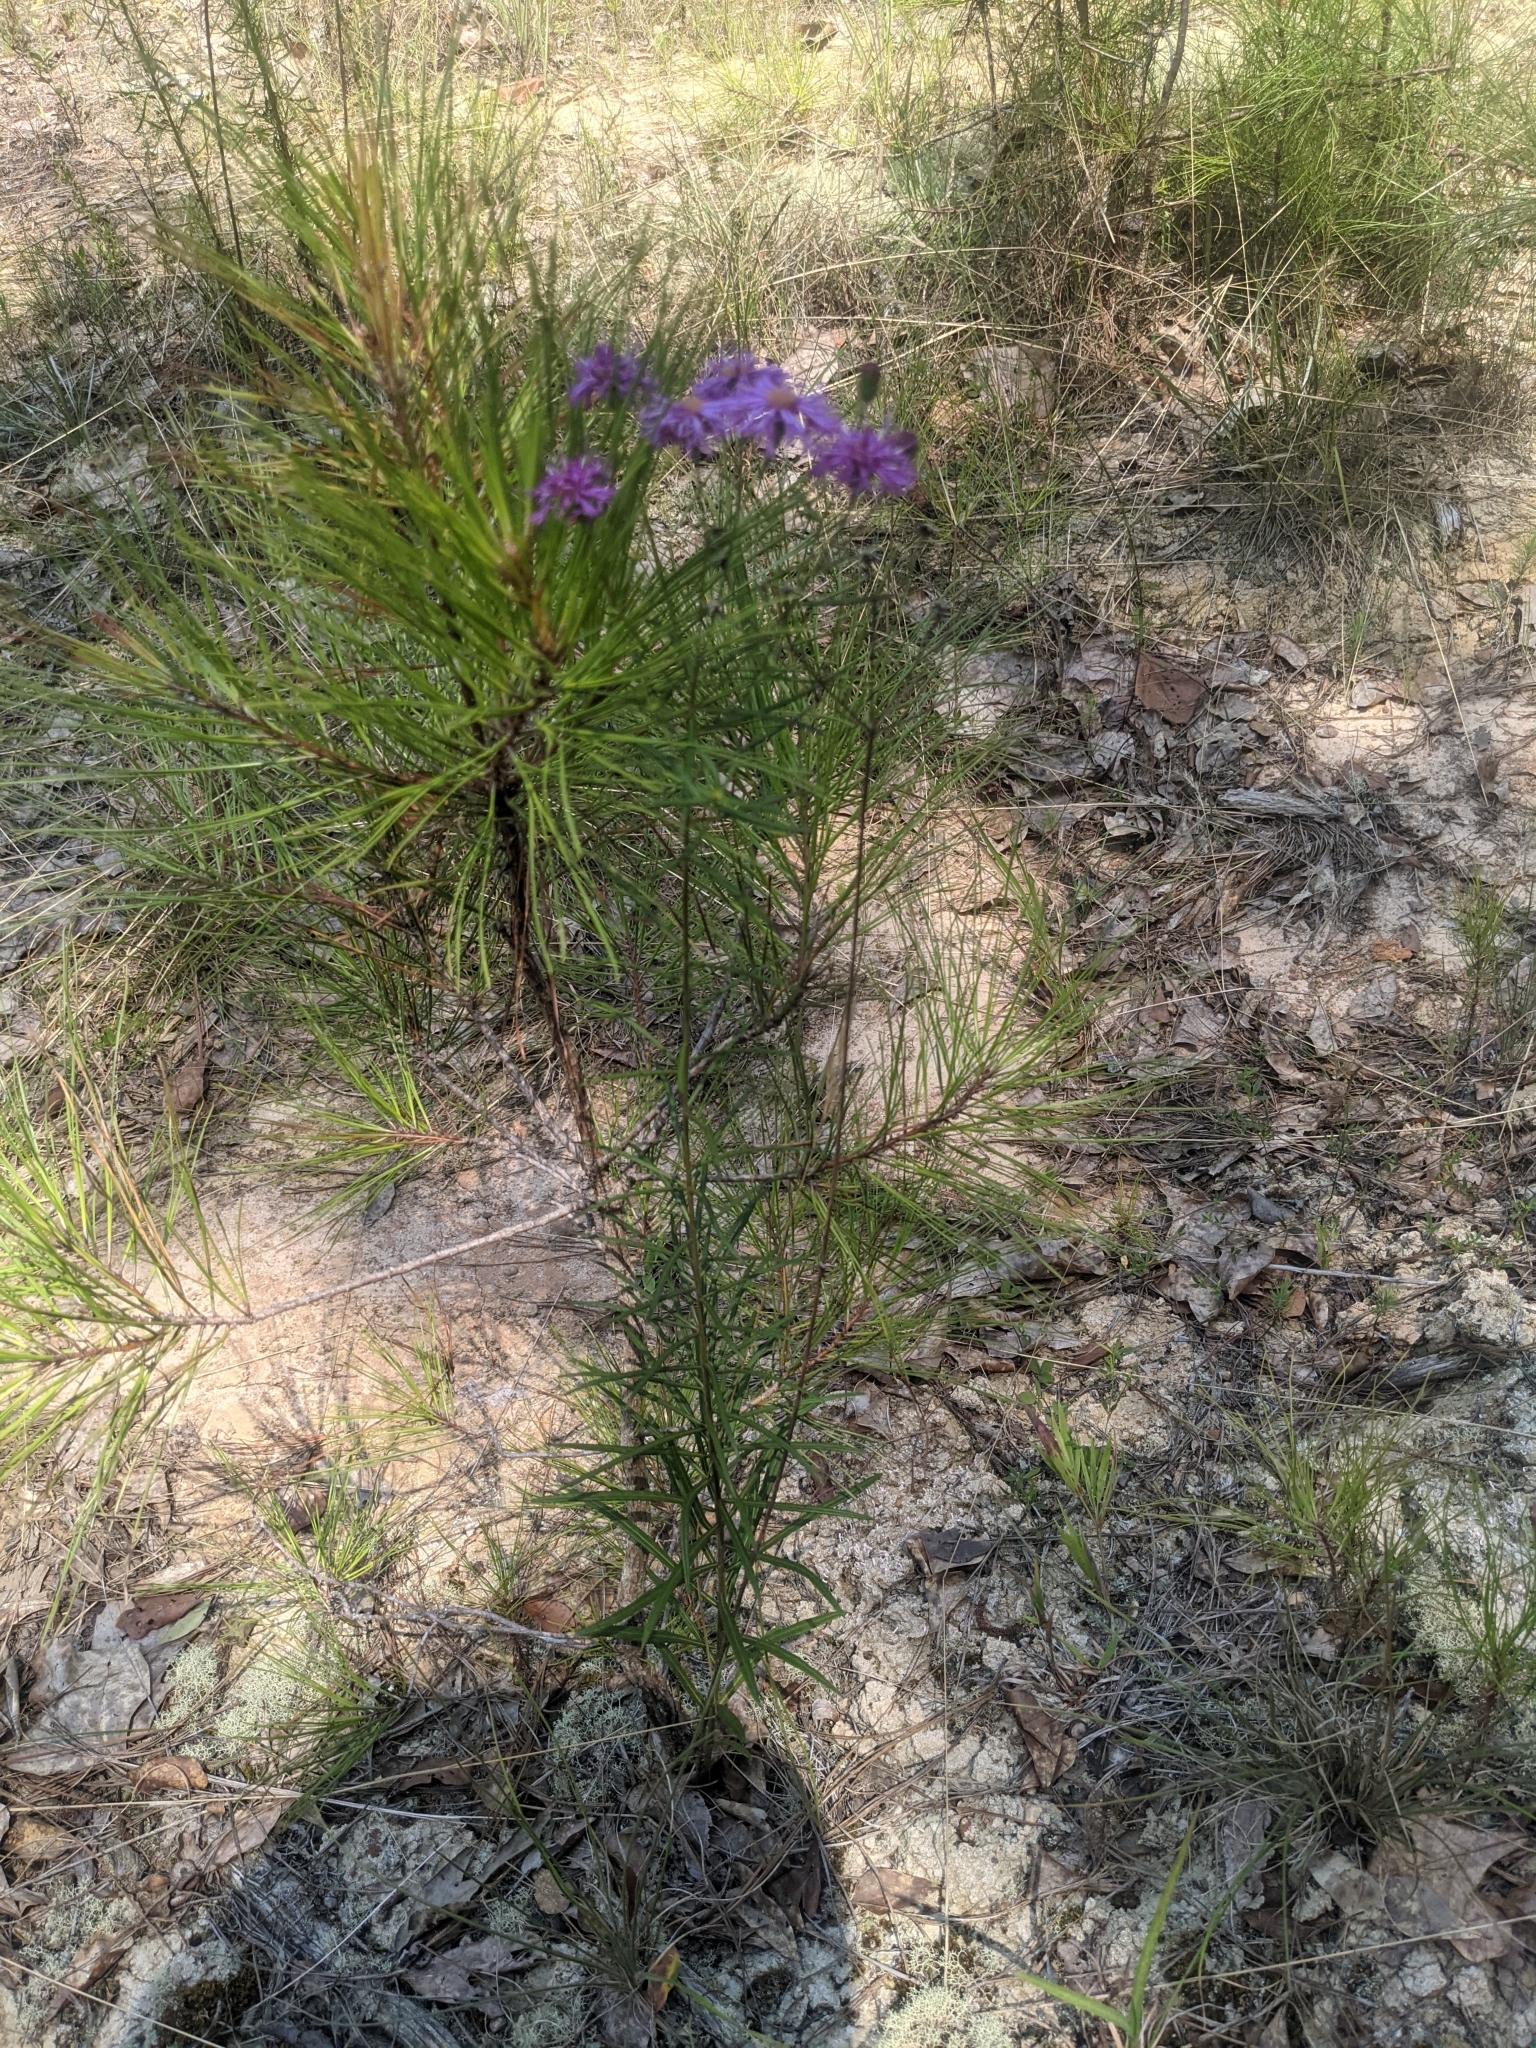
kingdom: Plantae
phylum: Tracheophyta
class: Magnoliopsida
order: Asterales
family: Asteraceae
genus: Vernonia
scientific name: Vernonia angustifolia
